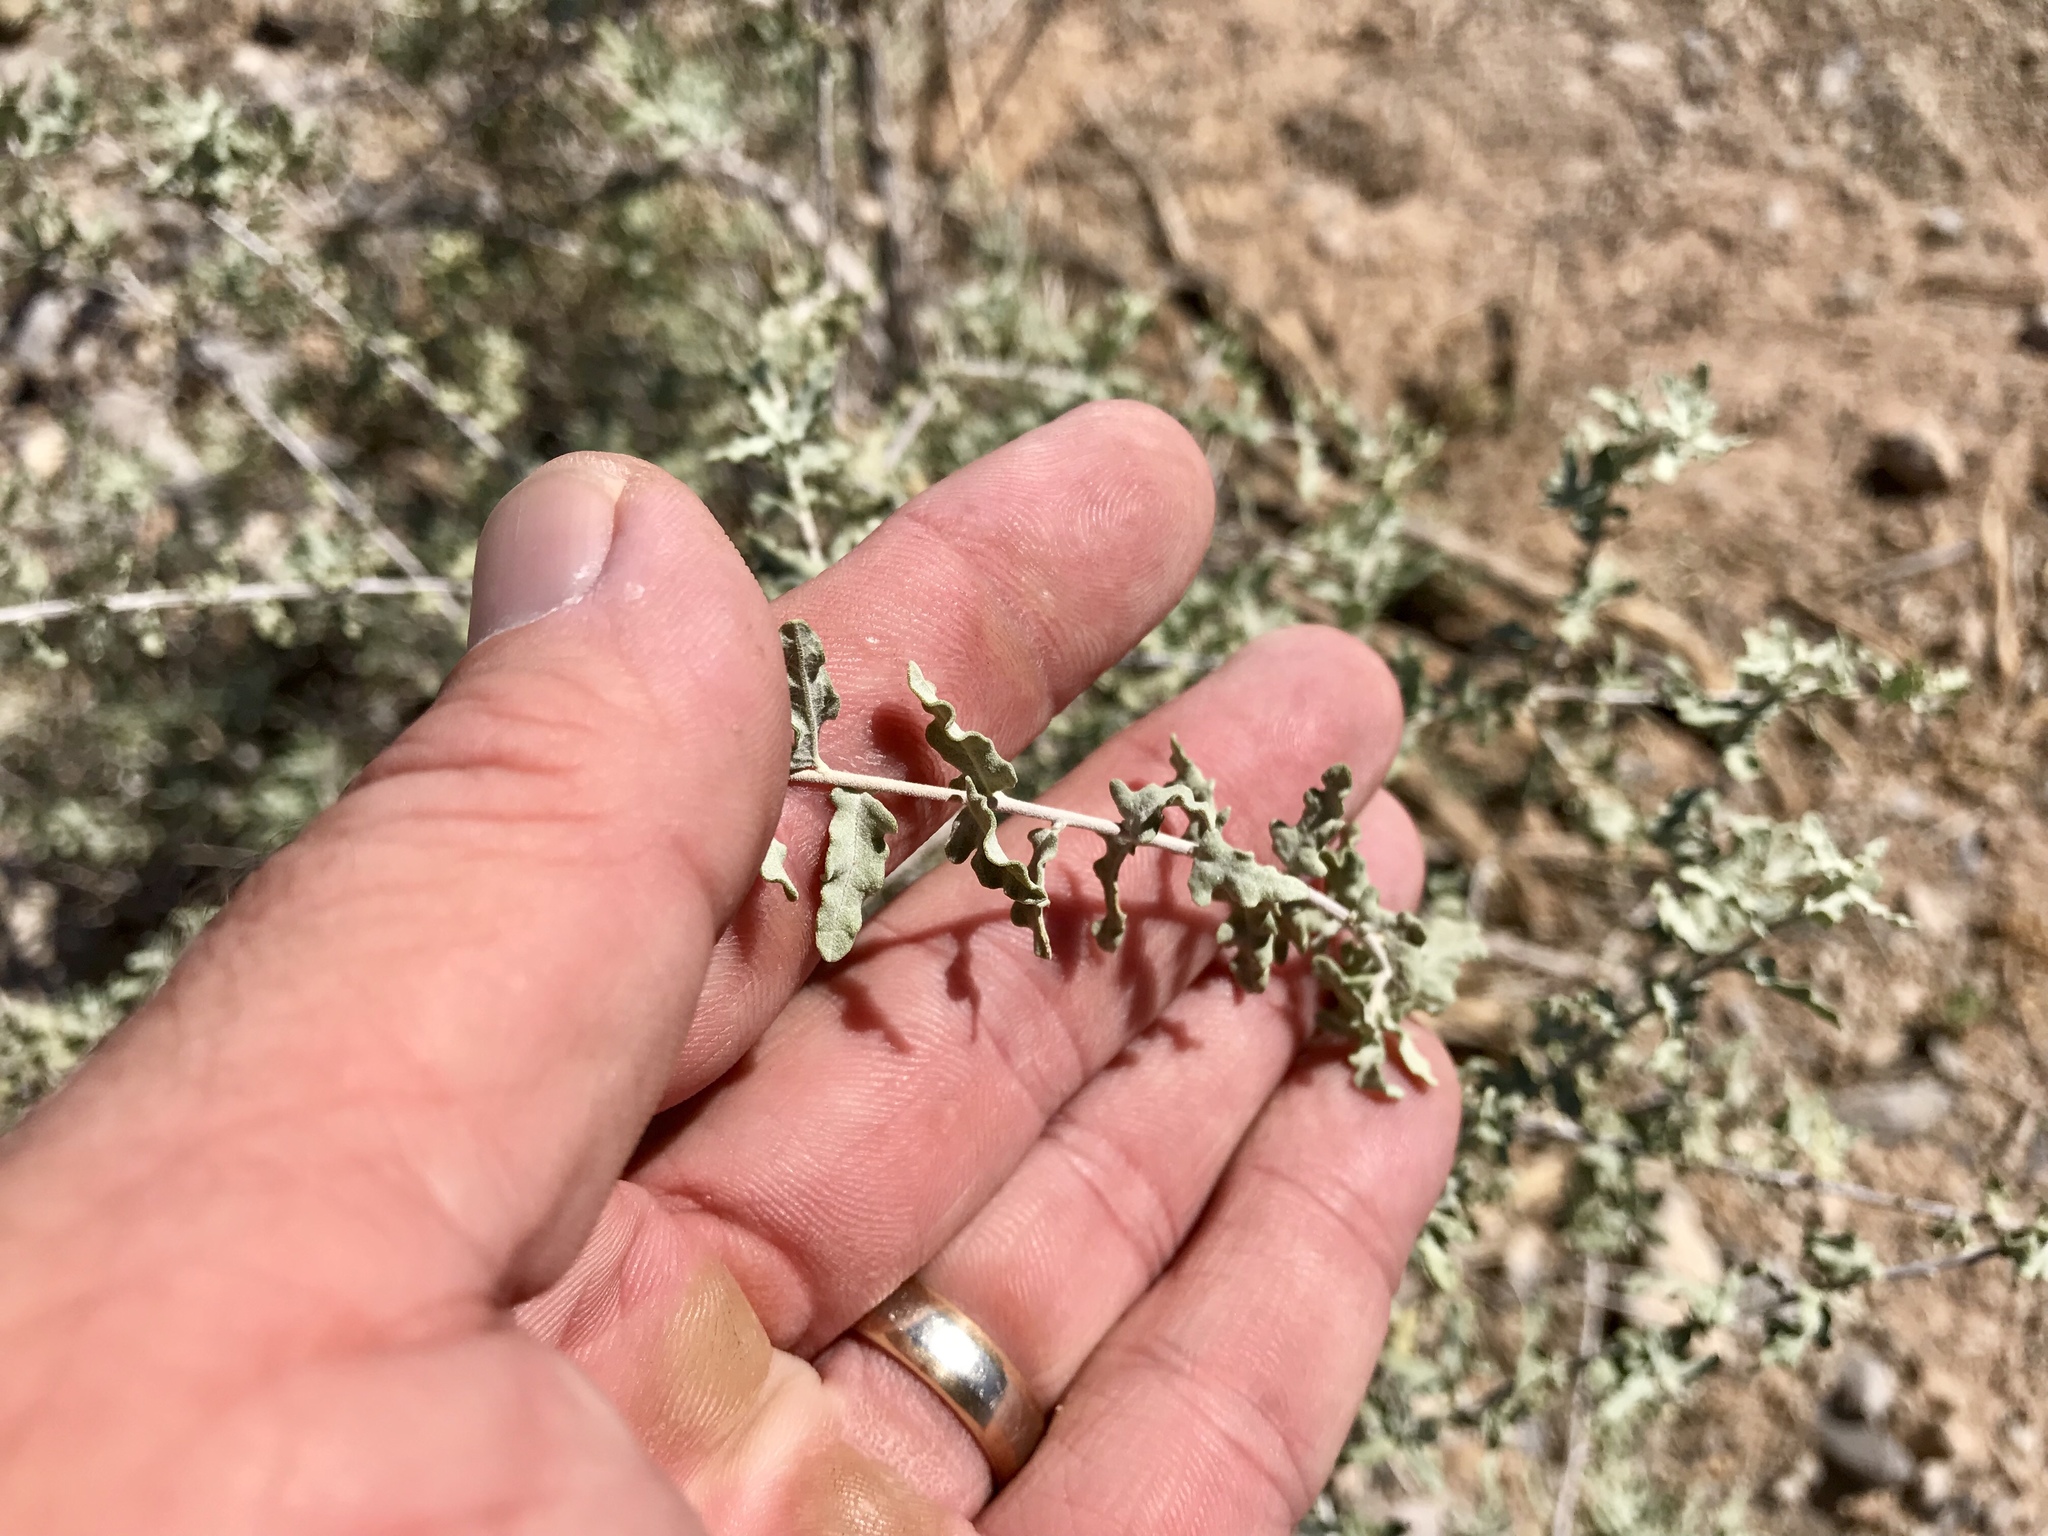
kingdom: Plantae
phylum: Tracheophyta
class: Magnoliopsida
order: Asterales
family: Asteraceae
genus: Ambrosia
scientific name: Ambrosia dumosa
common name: Bur-sage
